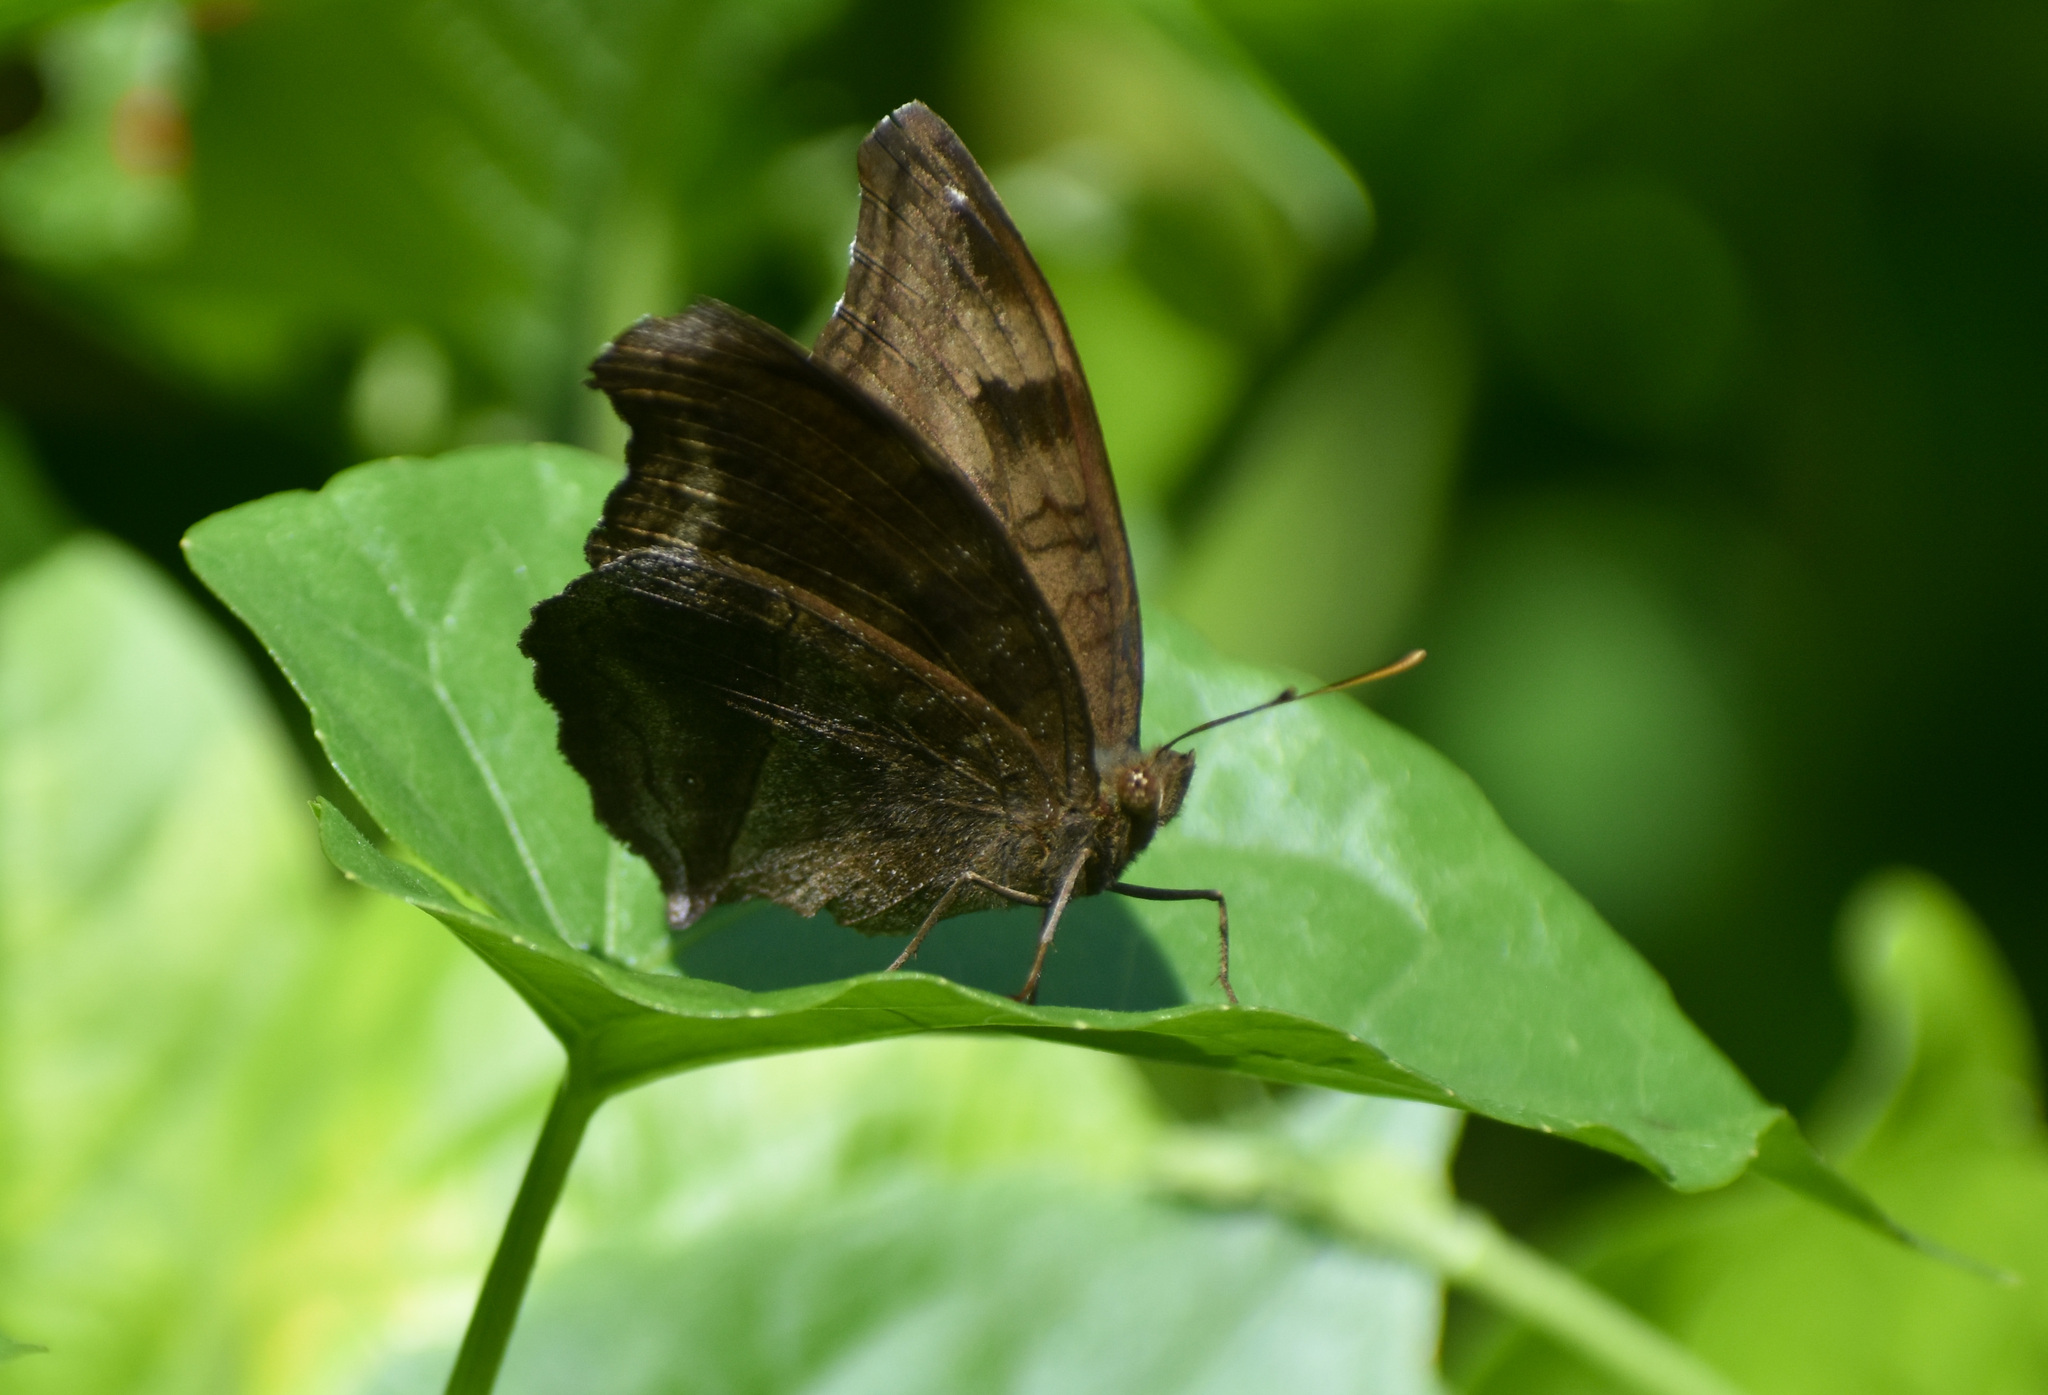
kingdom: Animalia
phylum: Arthropoda
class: Insecta
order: Lepidoptera
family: Nymphalidae
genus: Junonia
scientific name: Junonia iphita
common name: Chocolate pansy
